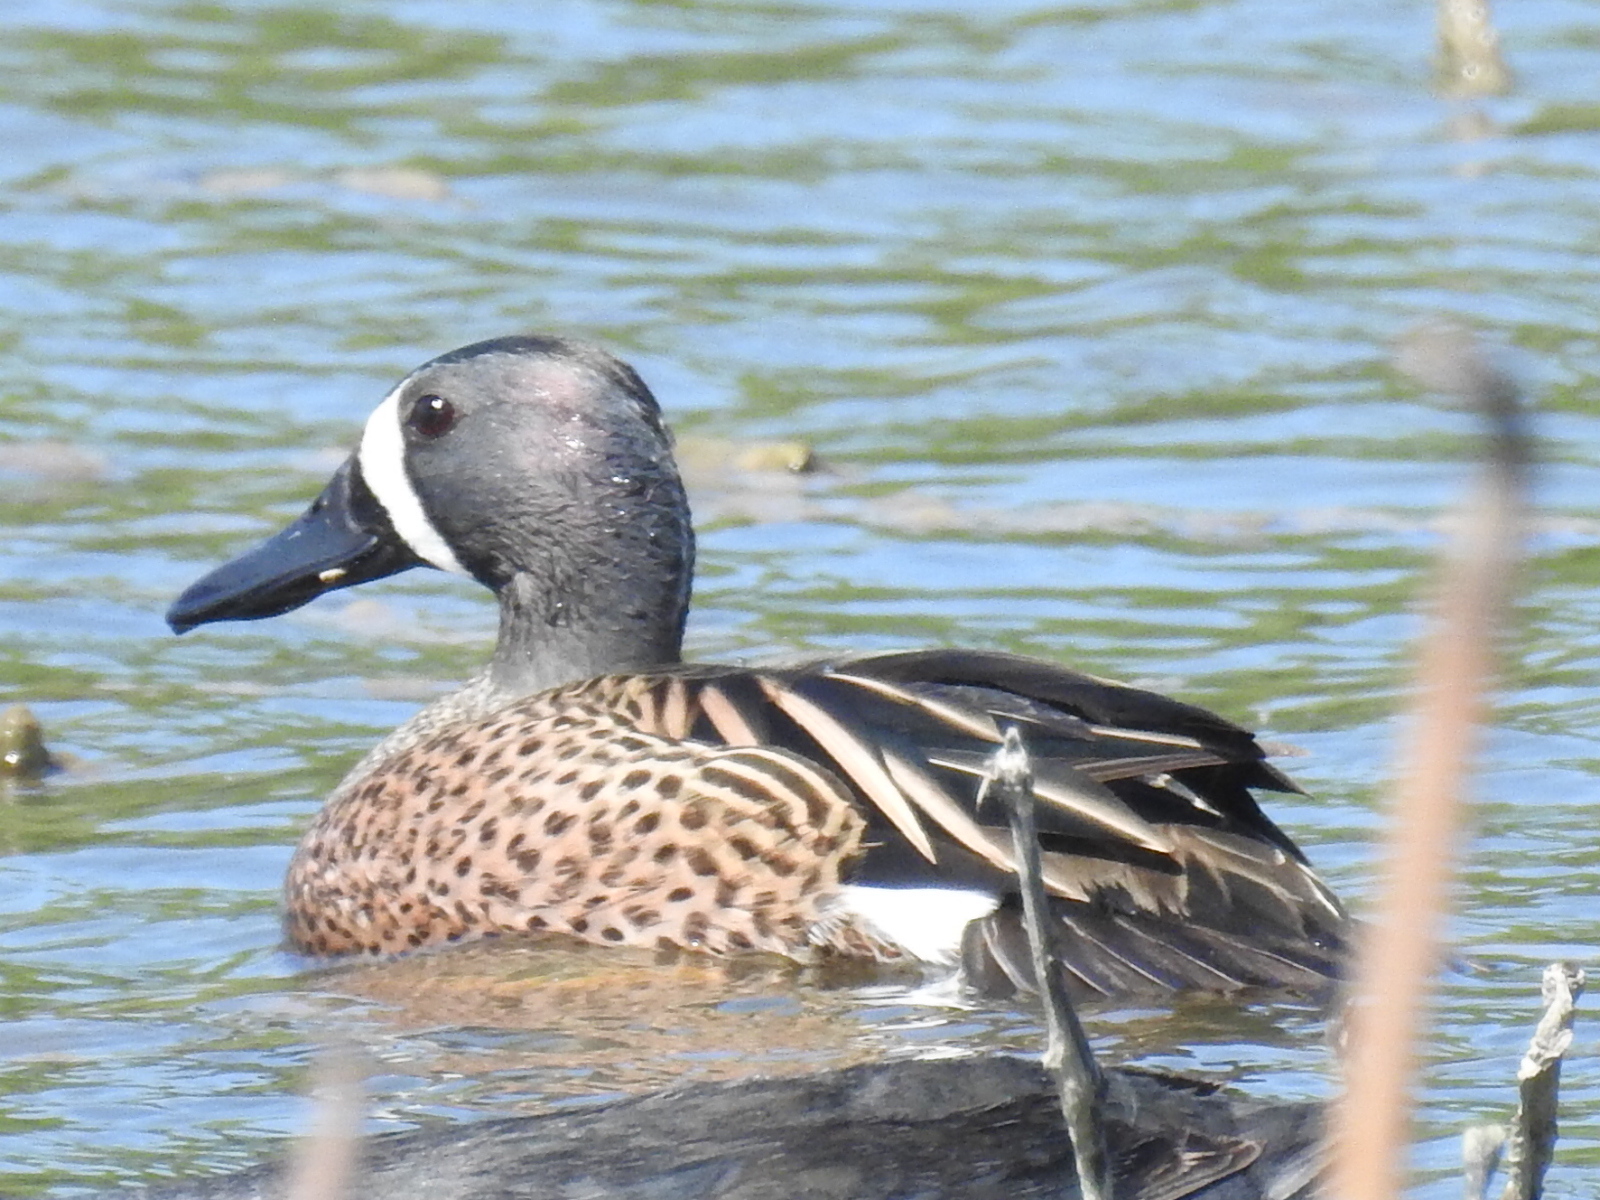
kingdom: Animalia
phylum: Chordata
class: Aves
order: Anseriformes
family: Anatidae
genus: Spatula
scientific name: Spatula discors
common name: Blue-winged teal
